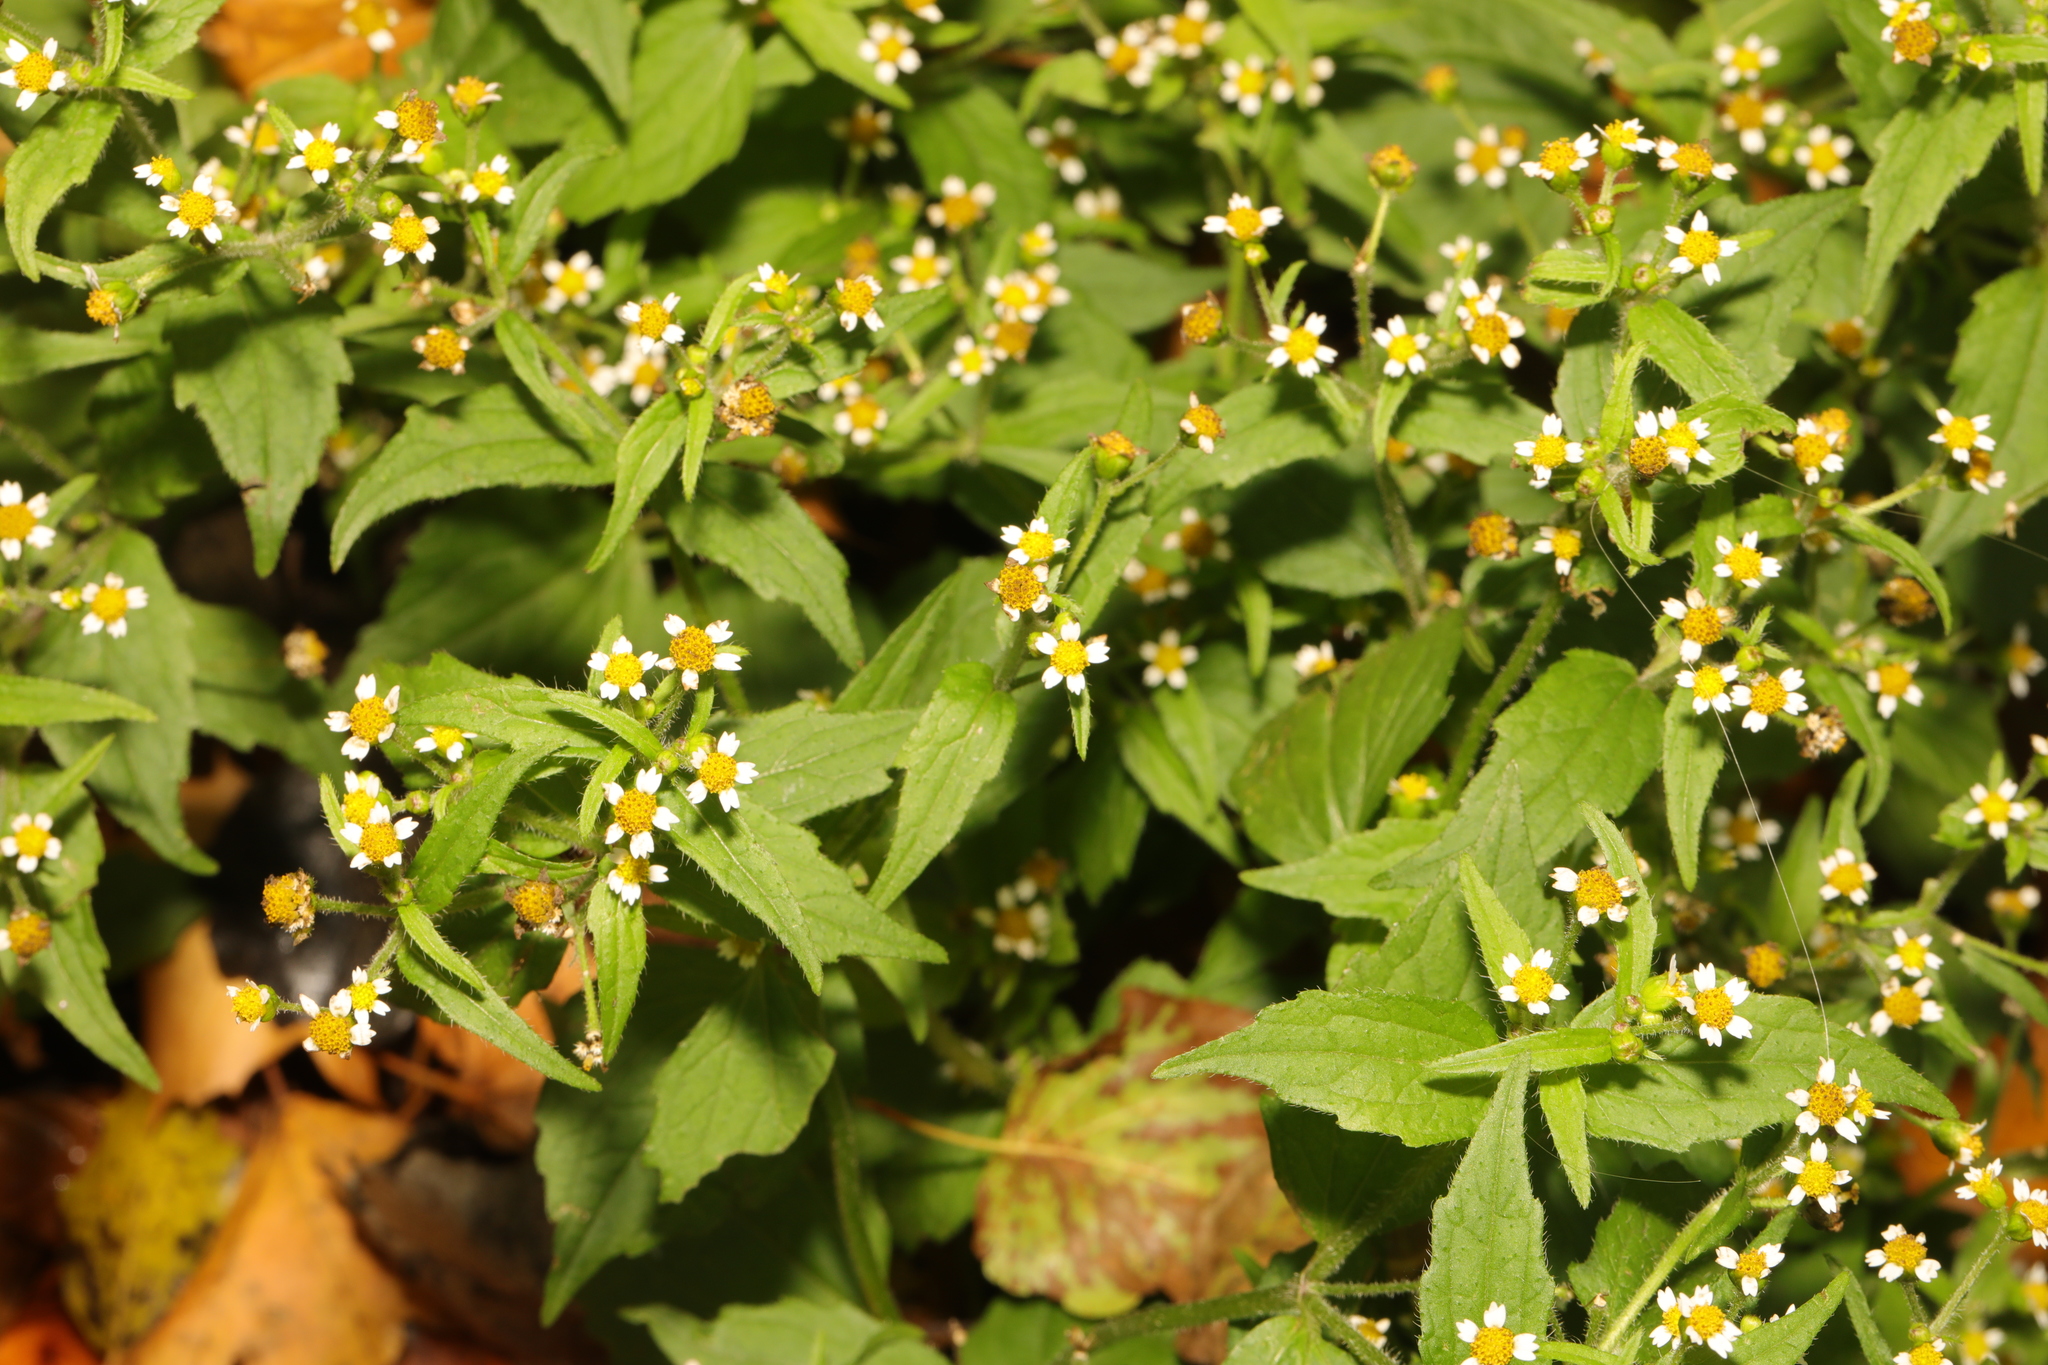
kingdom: Plantae
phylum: Tracheophyta
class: Magnoliopsida
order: Asterales
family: Asteraceae
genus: Galinsoga
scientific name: Galinsoga quadriradiata
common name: Shaggy soldier
